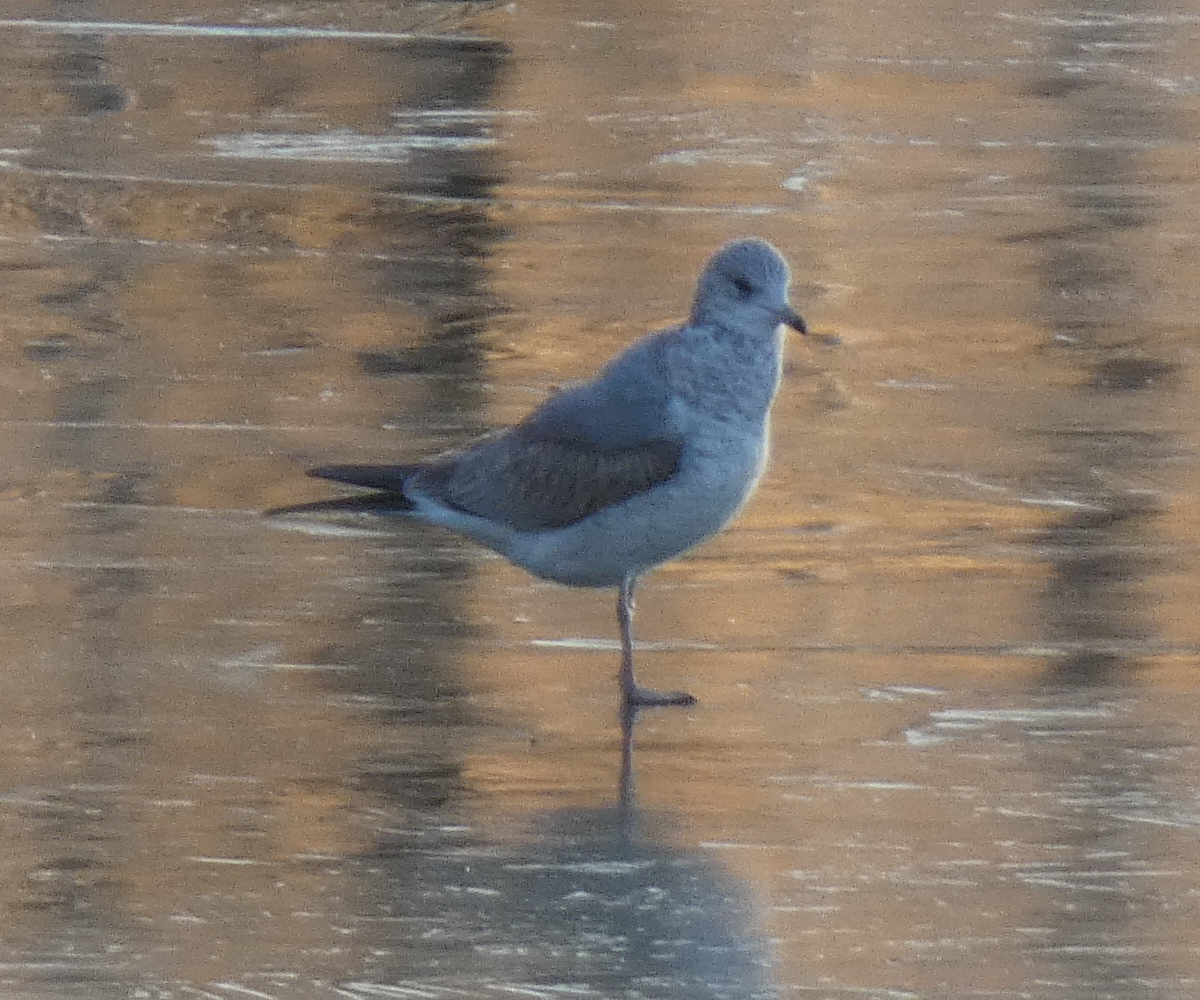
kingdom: Animalia
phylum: Chordata
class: Aves
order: Charadriiformes
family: Laridae
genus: Larus
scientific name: Larus canus
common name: Mew gull
